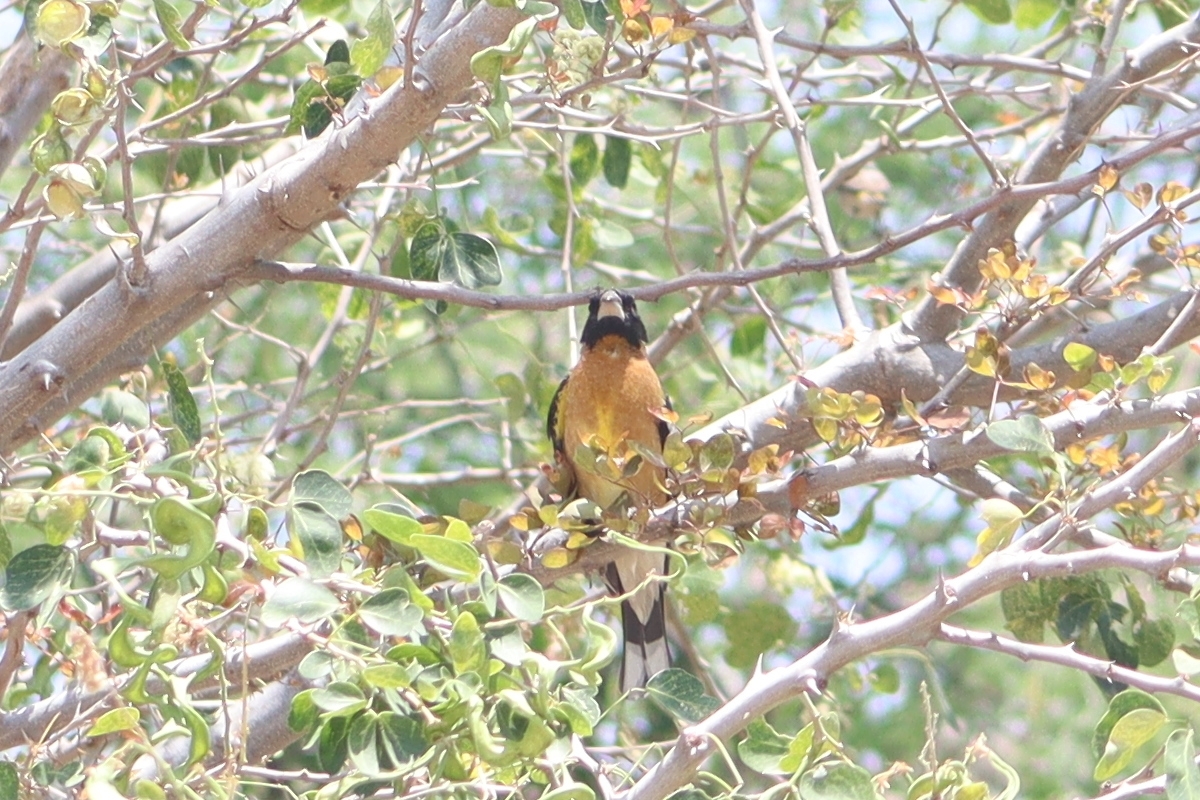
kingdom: Animalia
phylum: Chordata
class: Aves
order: Passeriformes
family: Cardinalidae
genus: Pheucticus
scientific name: Pheucticus melanocephalus
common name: Black-headed grosbeak
